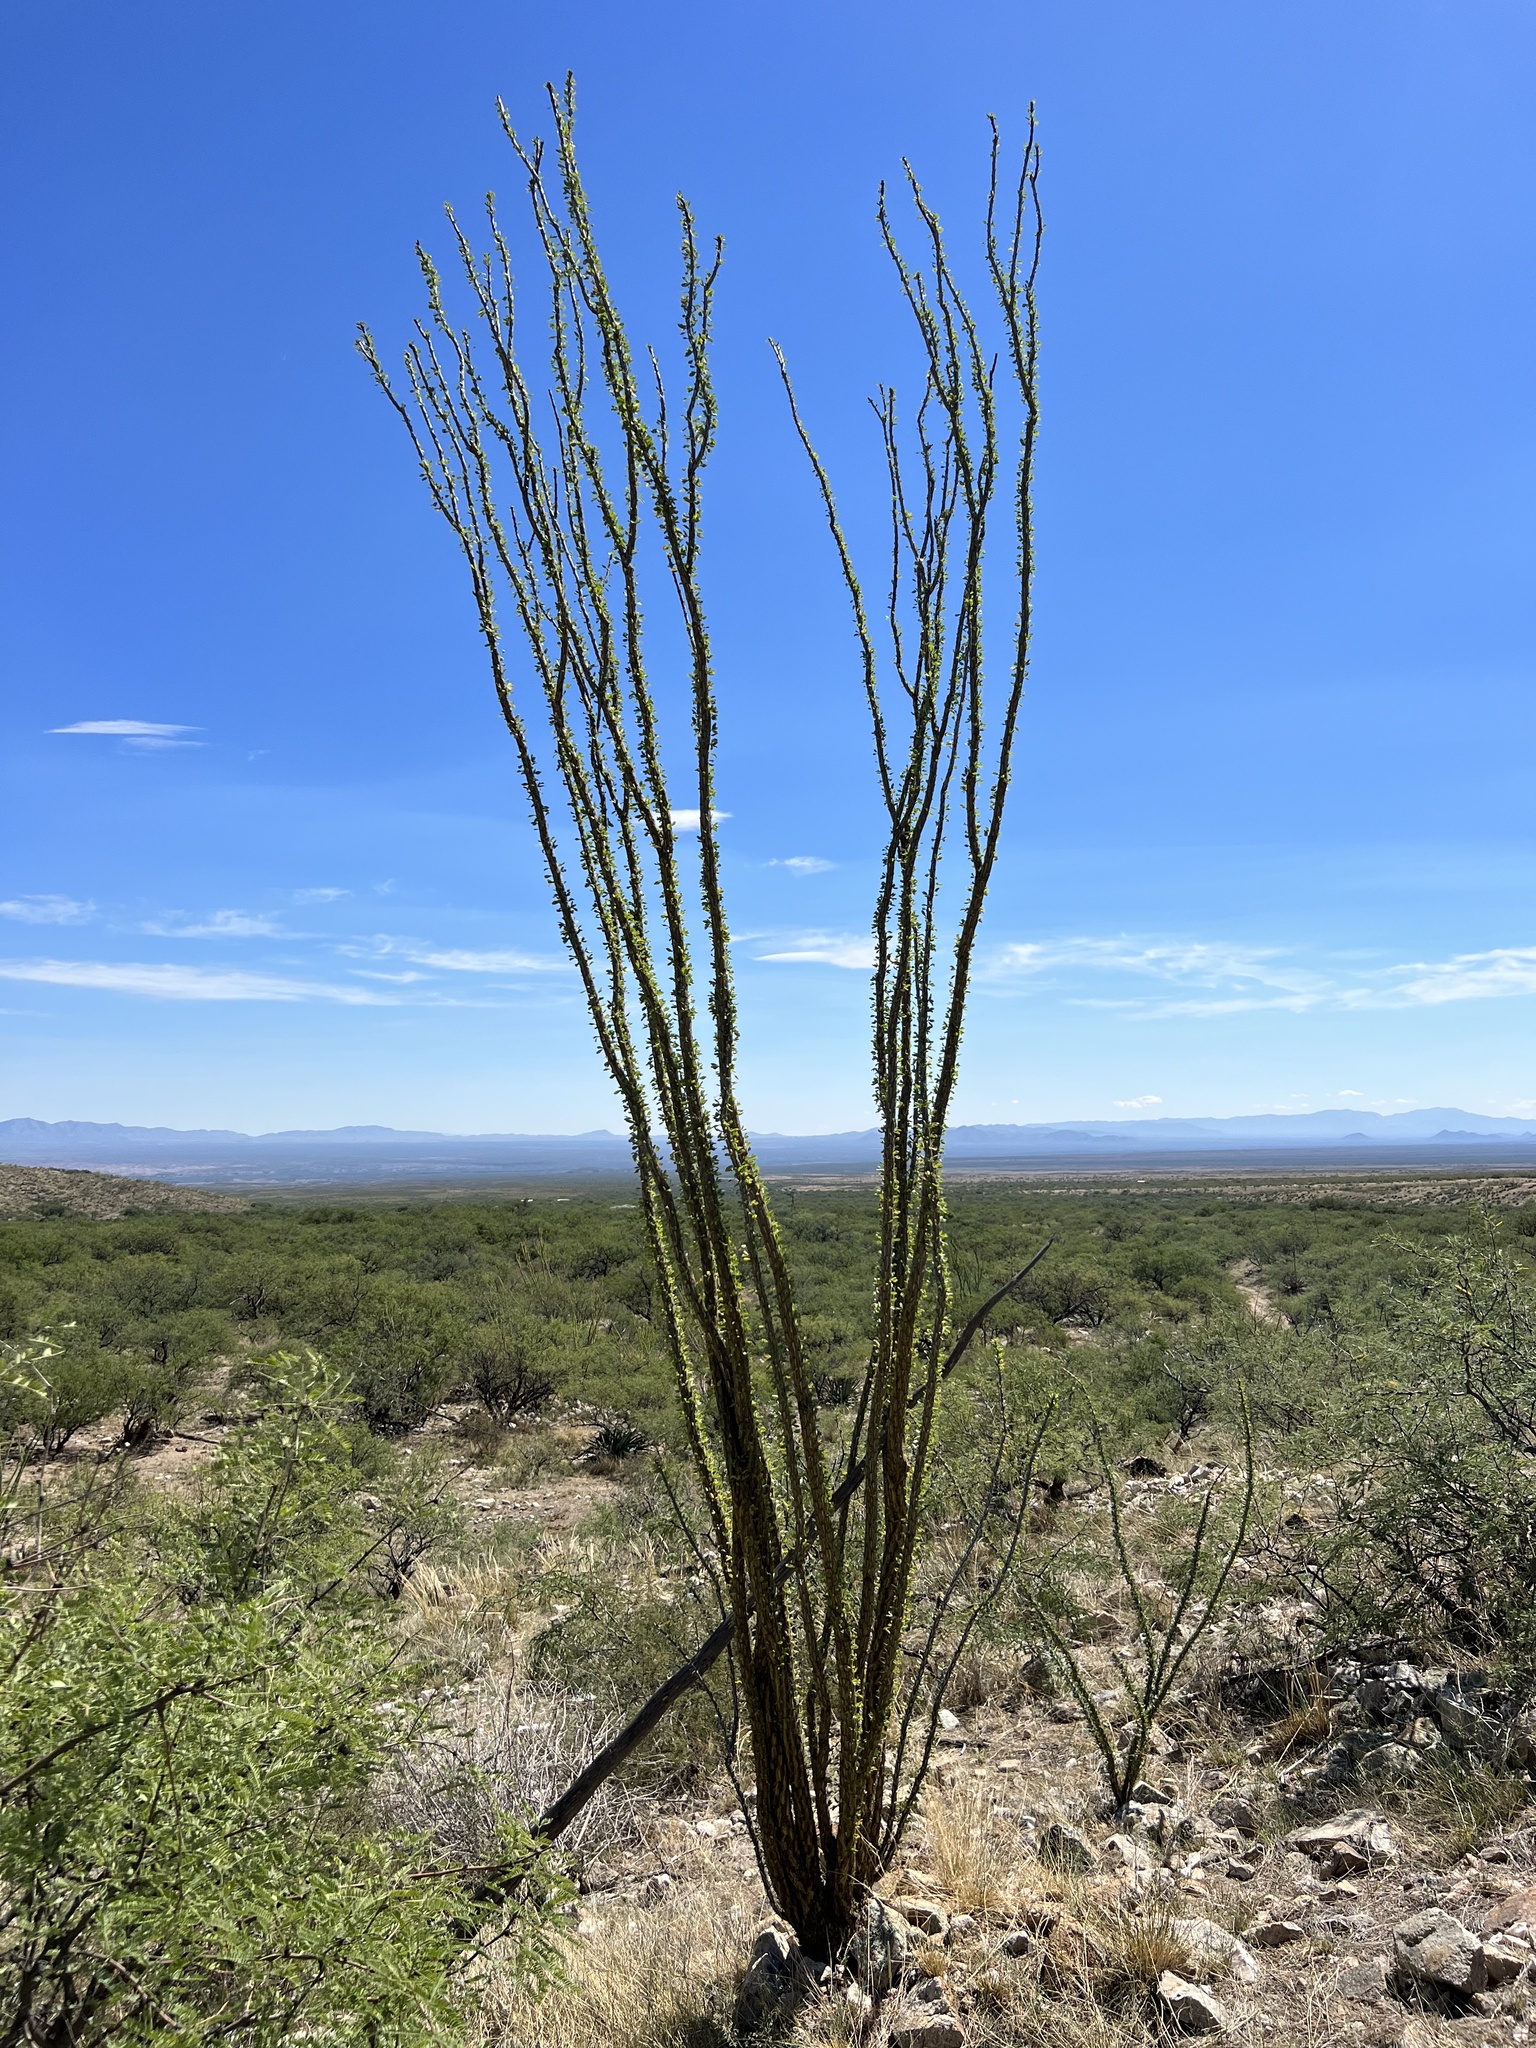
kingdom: Plantae
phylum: Tracheophyta
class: Magnoliopsida
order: Ericales
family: Fouquieriaceae
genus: Fouquieria
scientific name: Fouquieria splendens
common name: Vine-cactus
